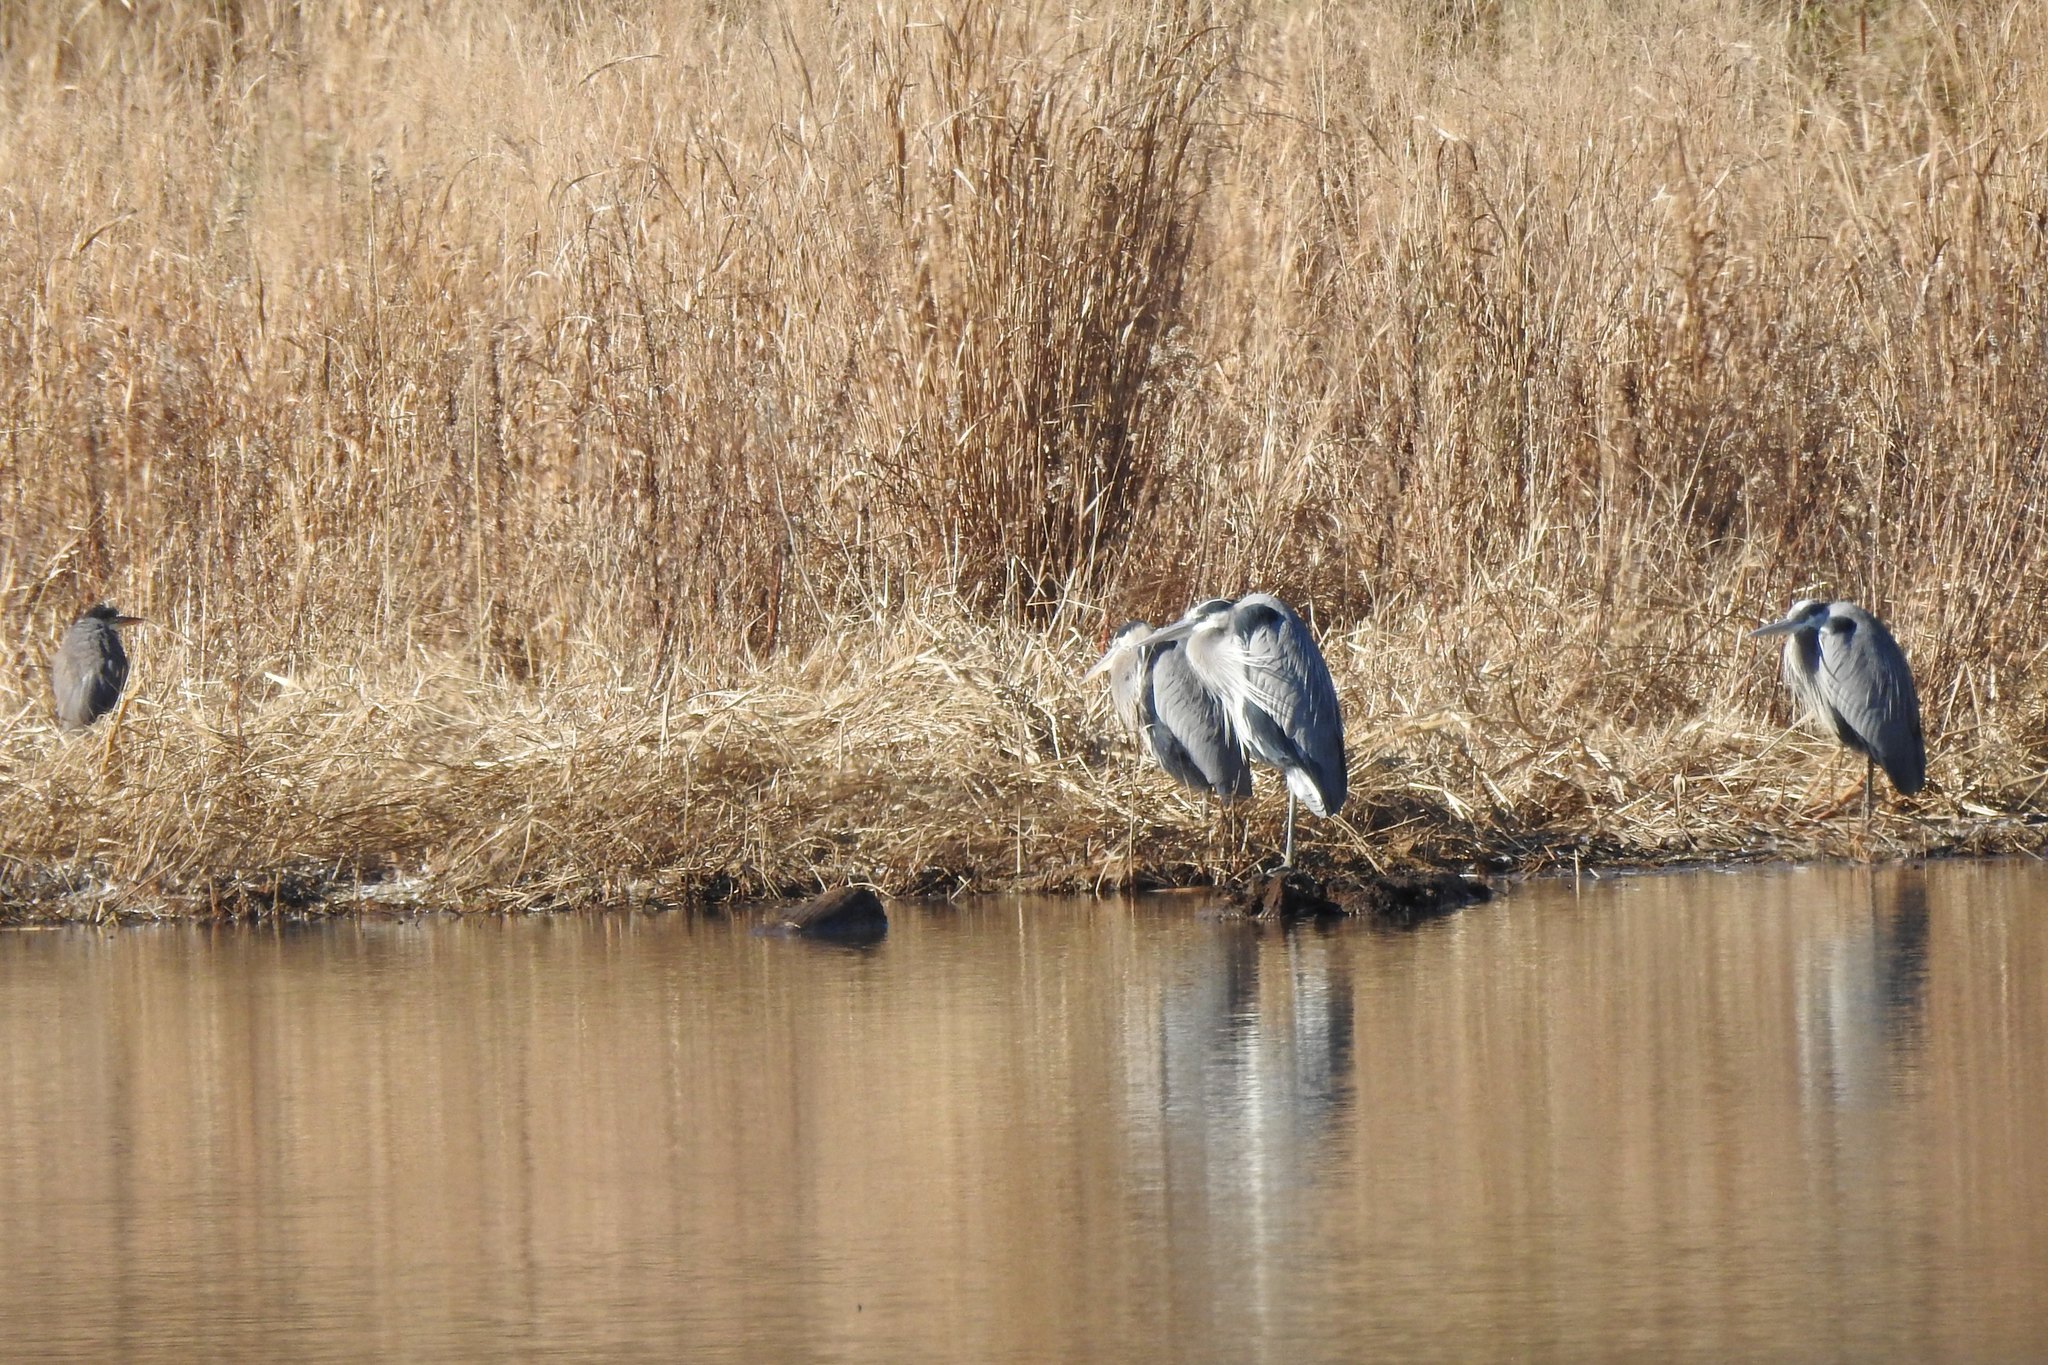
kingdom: Animalia
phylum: Chordata
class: Aves
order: Pelecaniformes
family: Ardeidae
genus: Ardea
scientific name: Ardea herodias
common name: Great blue heron
